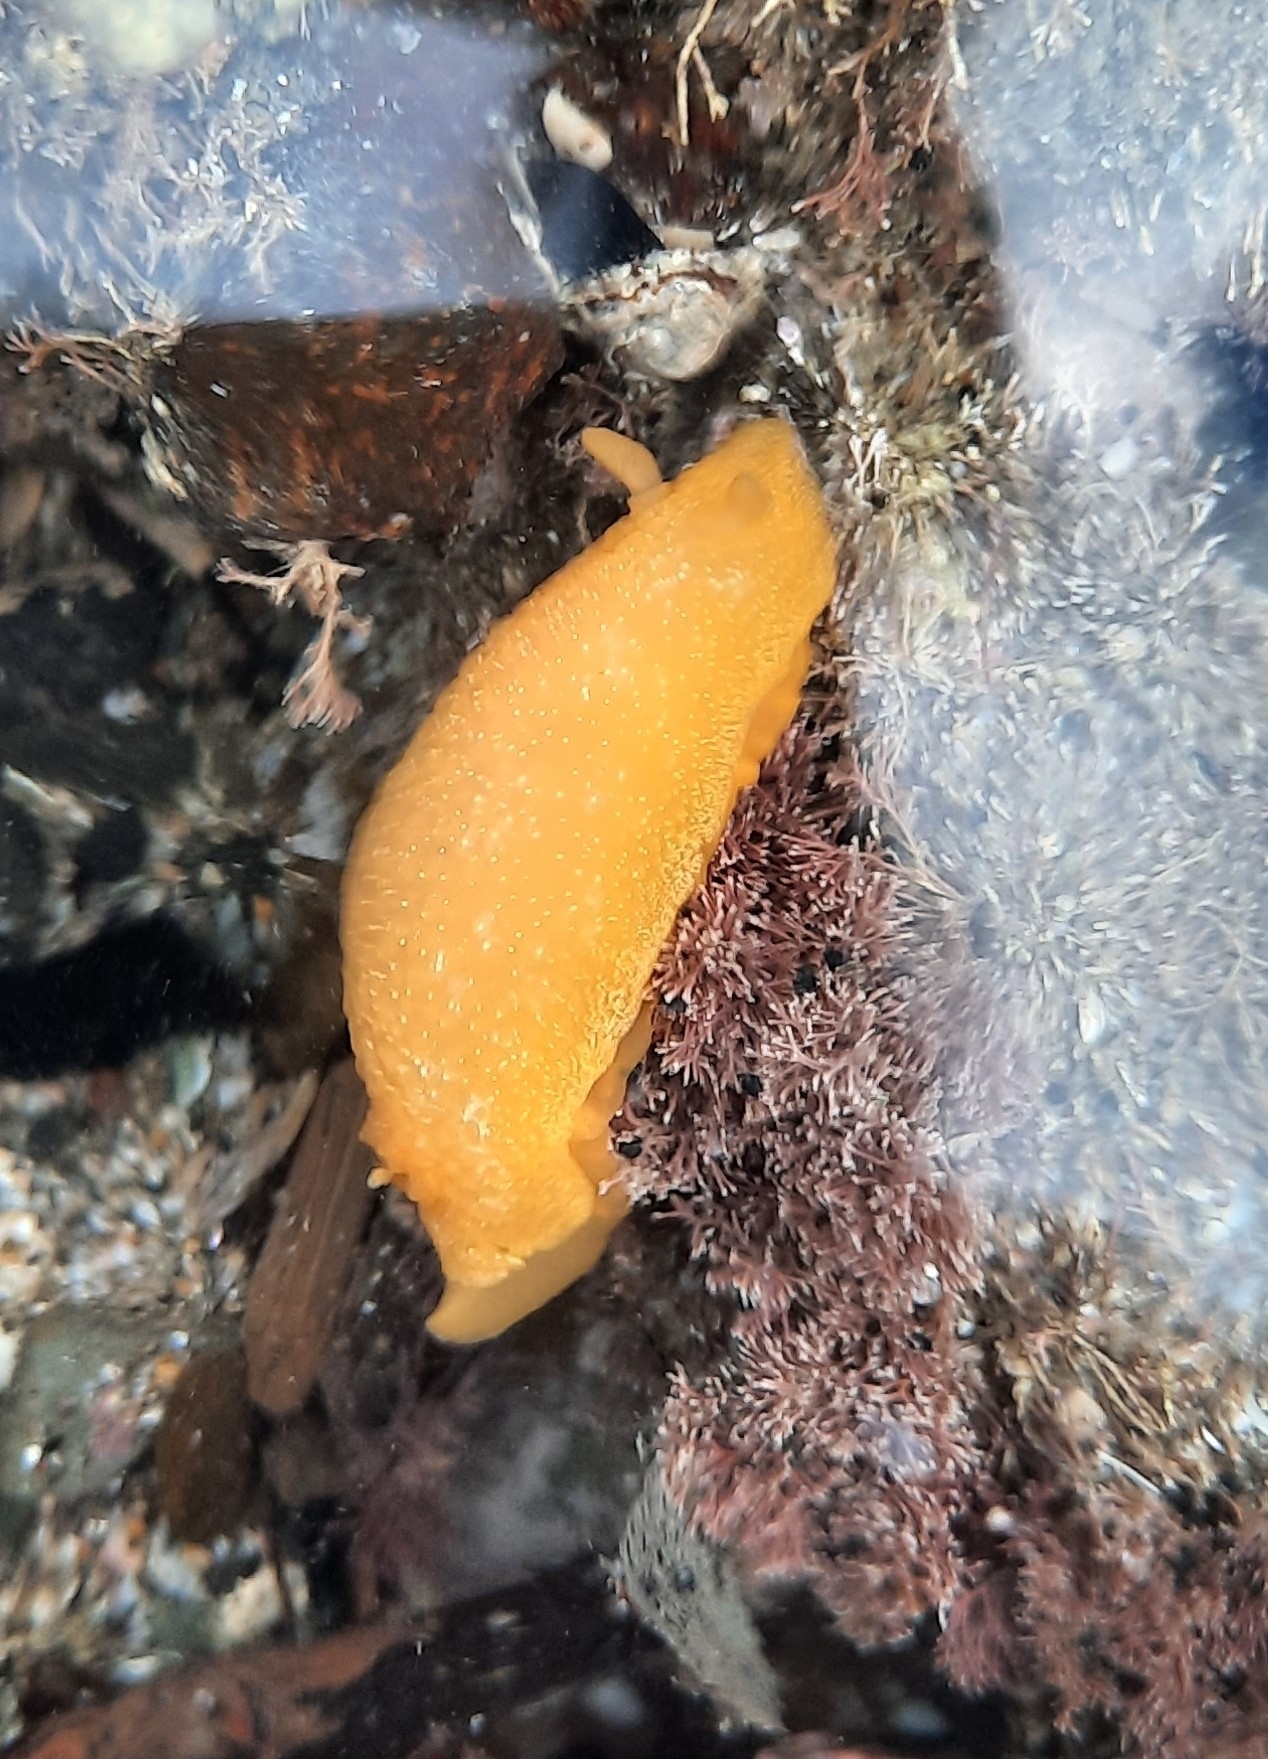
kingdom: Animalia
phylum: Mollusca
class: Gastropoda
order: Nudibranchia
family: Dendrodorididae
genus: Dendrodoris
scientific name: Dendrodoris citrina
